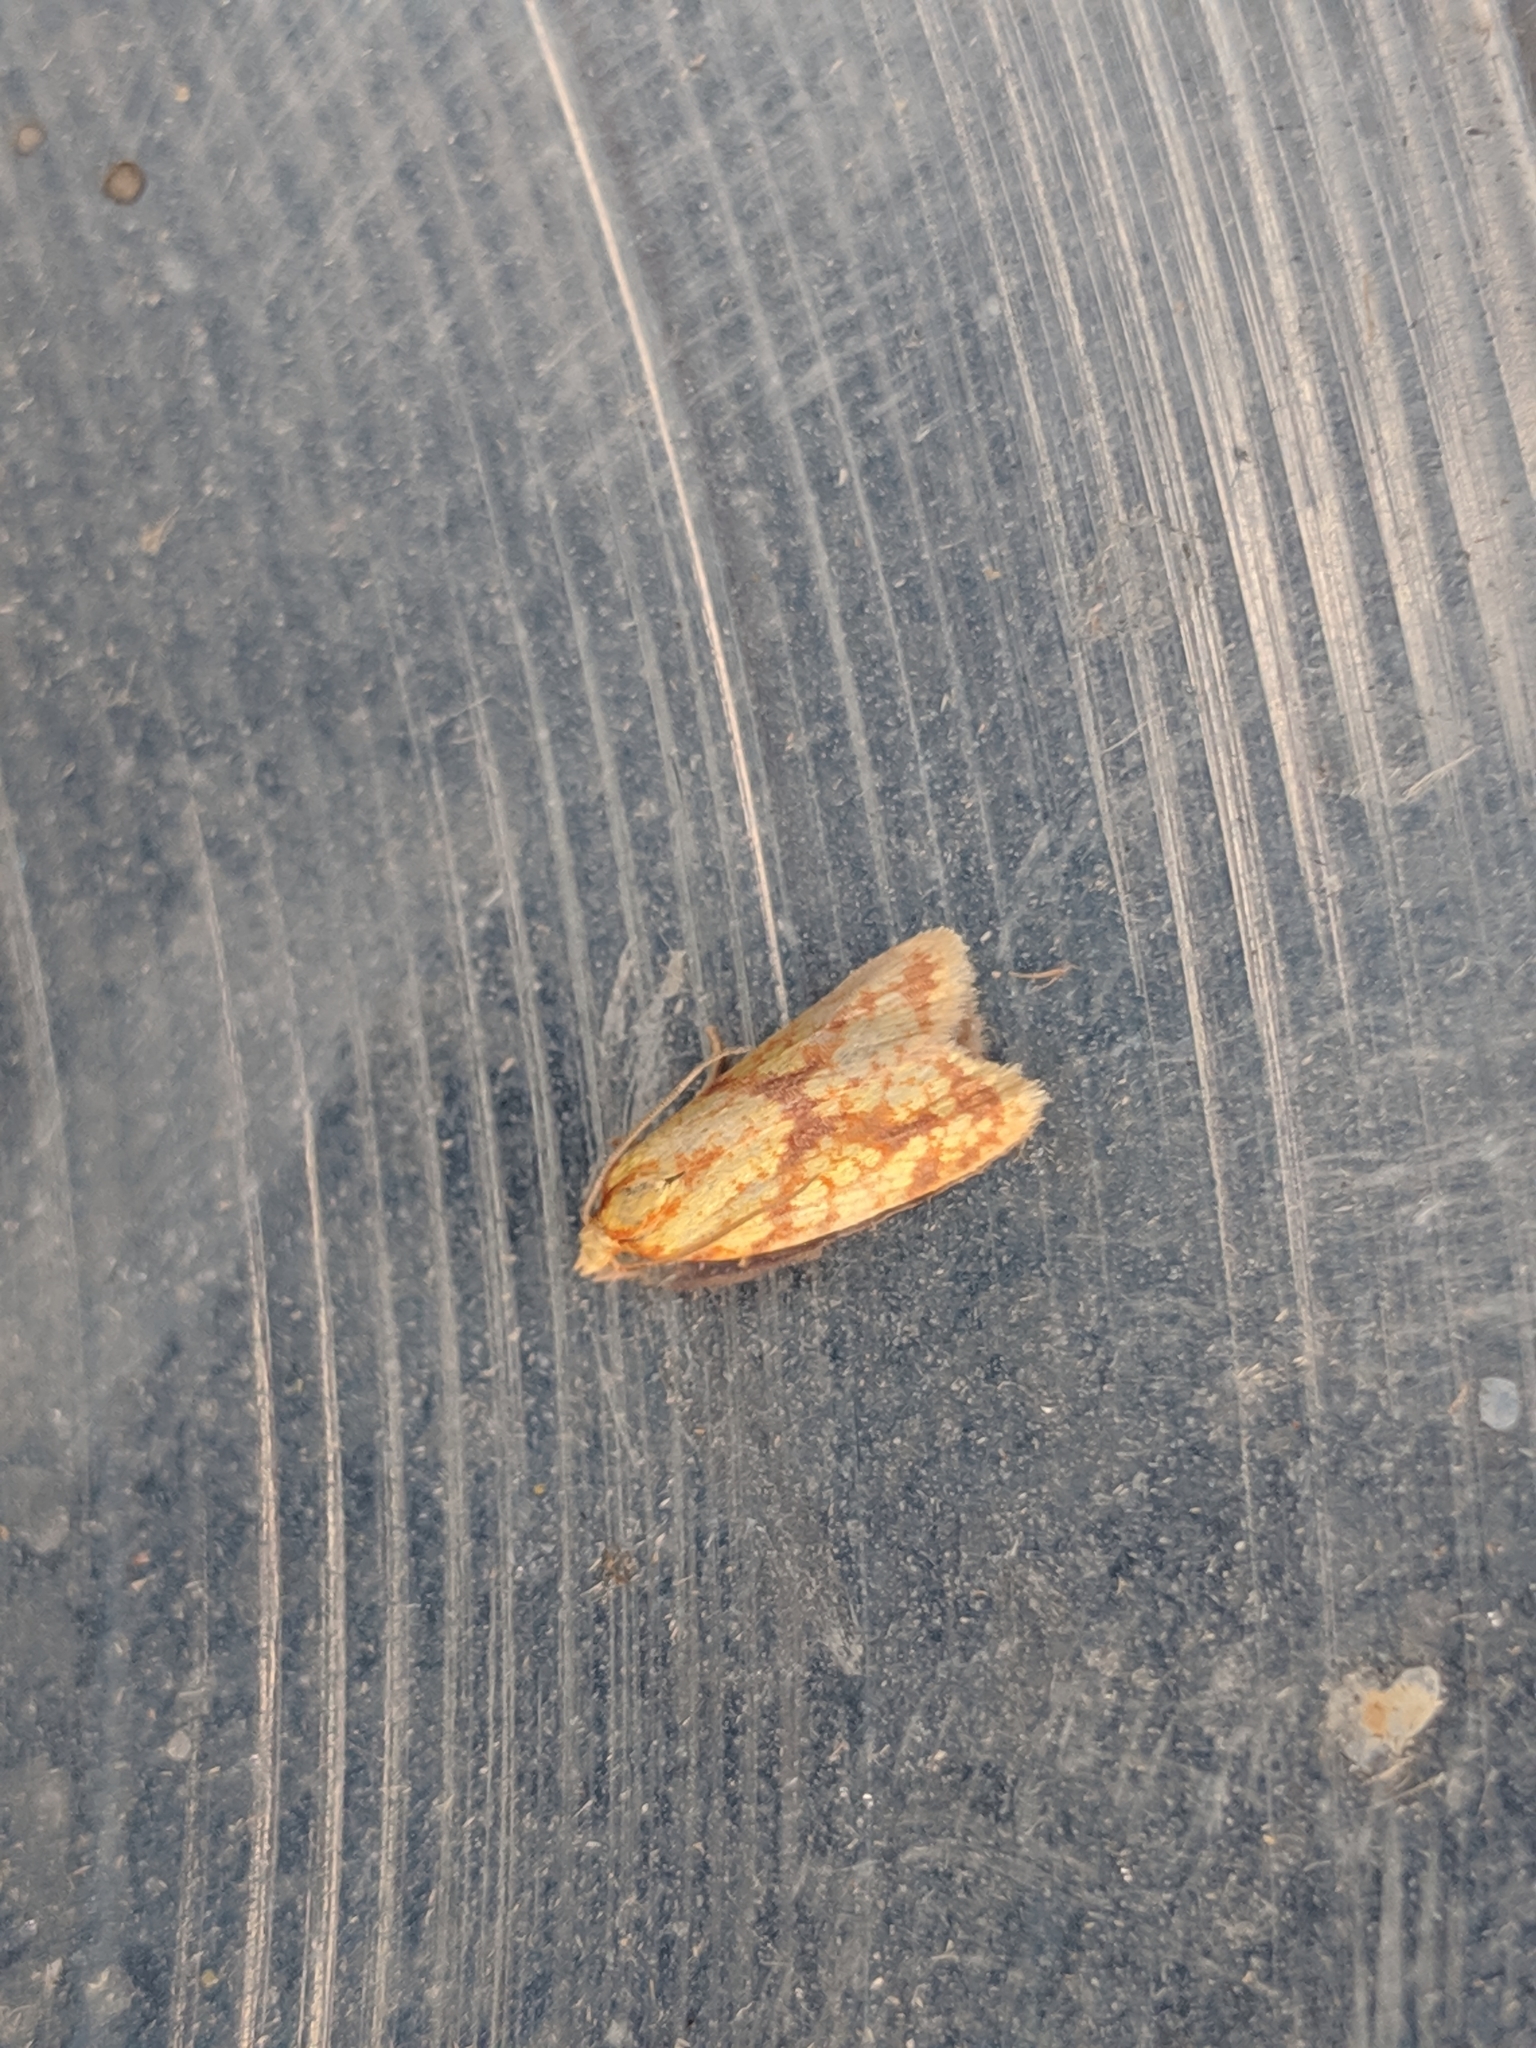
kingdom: Animalia
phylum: Arthropoda
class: Insecta
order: Lepidoptera
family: Tortricidae
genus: Sparganothis
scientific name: Sparganothis sulfureana
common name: Sparganothis fruitworm moth
